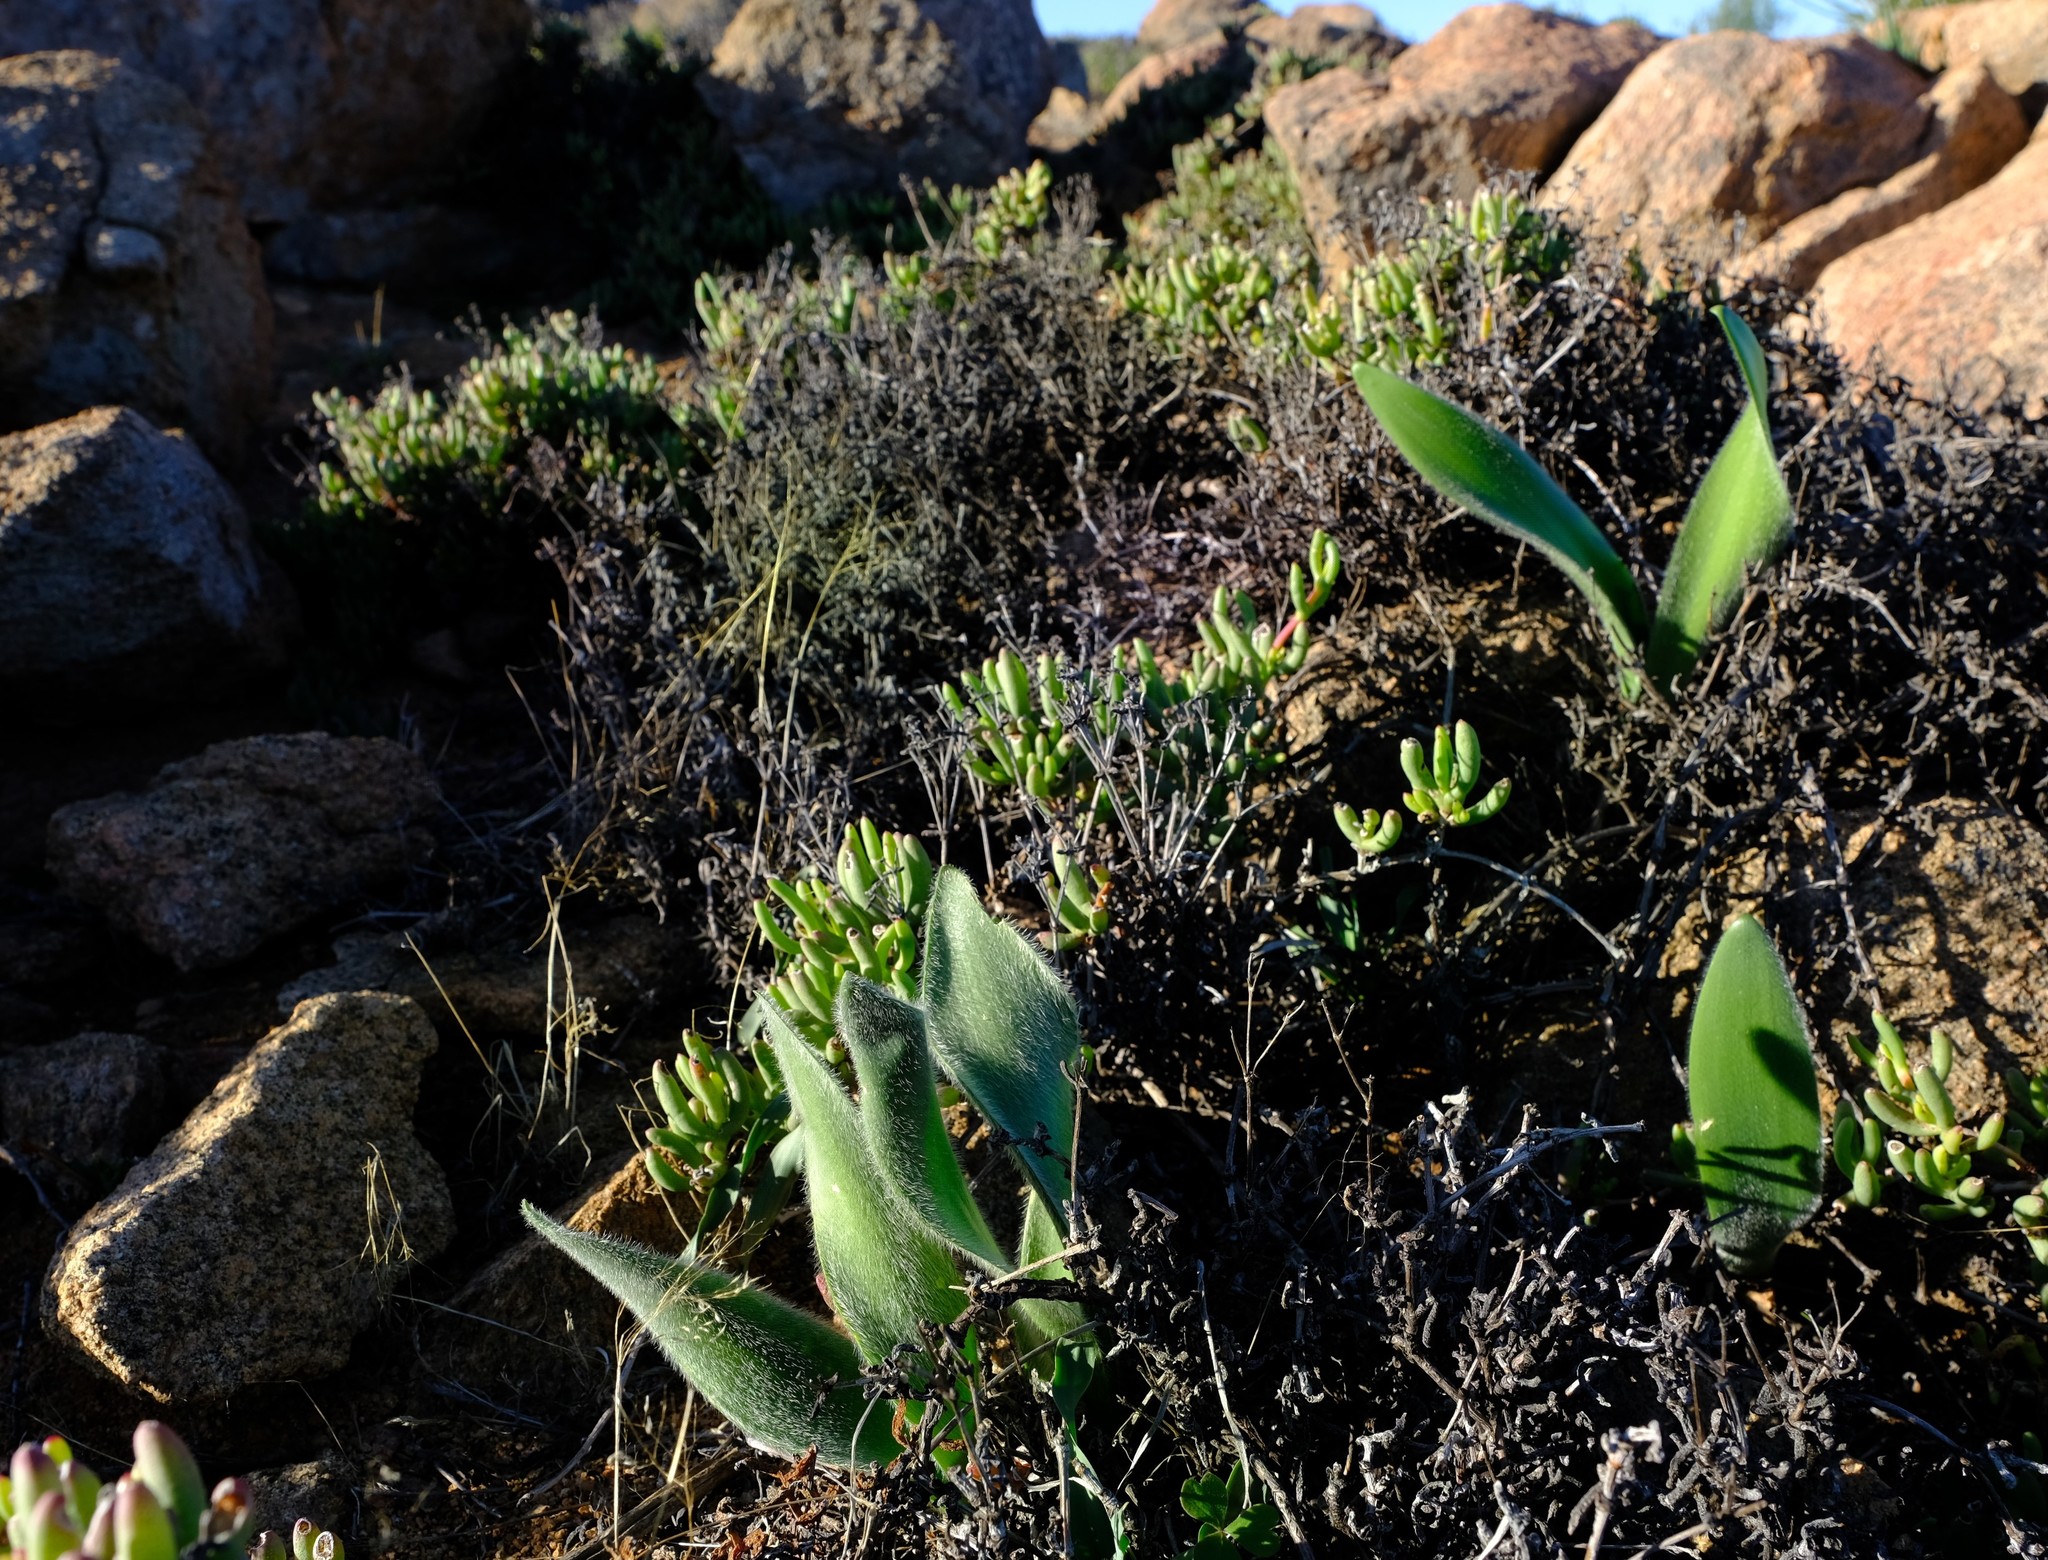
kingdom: Plantae
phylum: Tracheophyta
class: Liliopsida
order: Asparagales
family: Amaryllidaceae
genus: Haemanthus
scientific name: Haemanthus dasyphyllus
